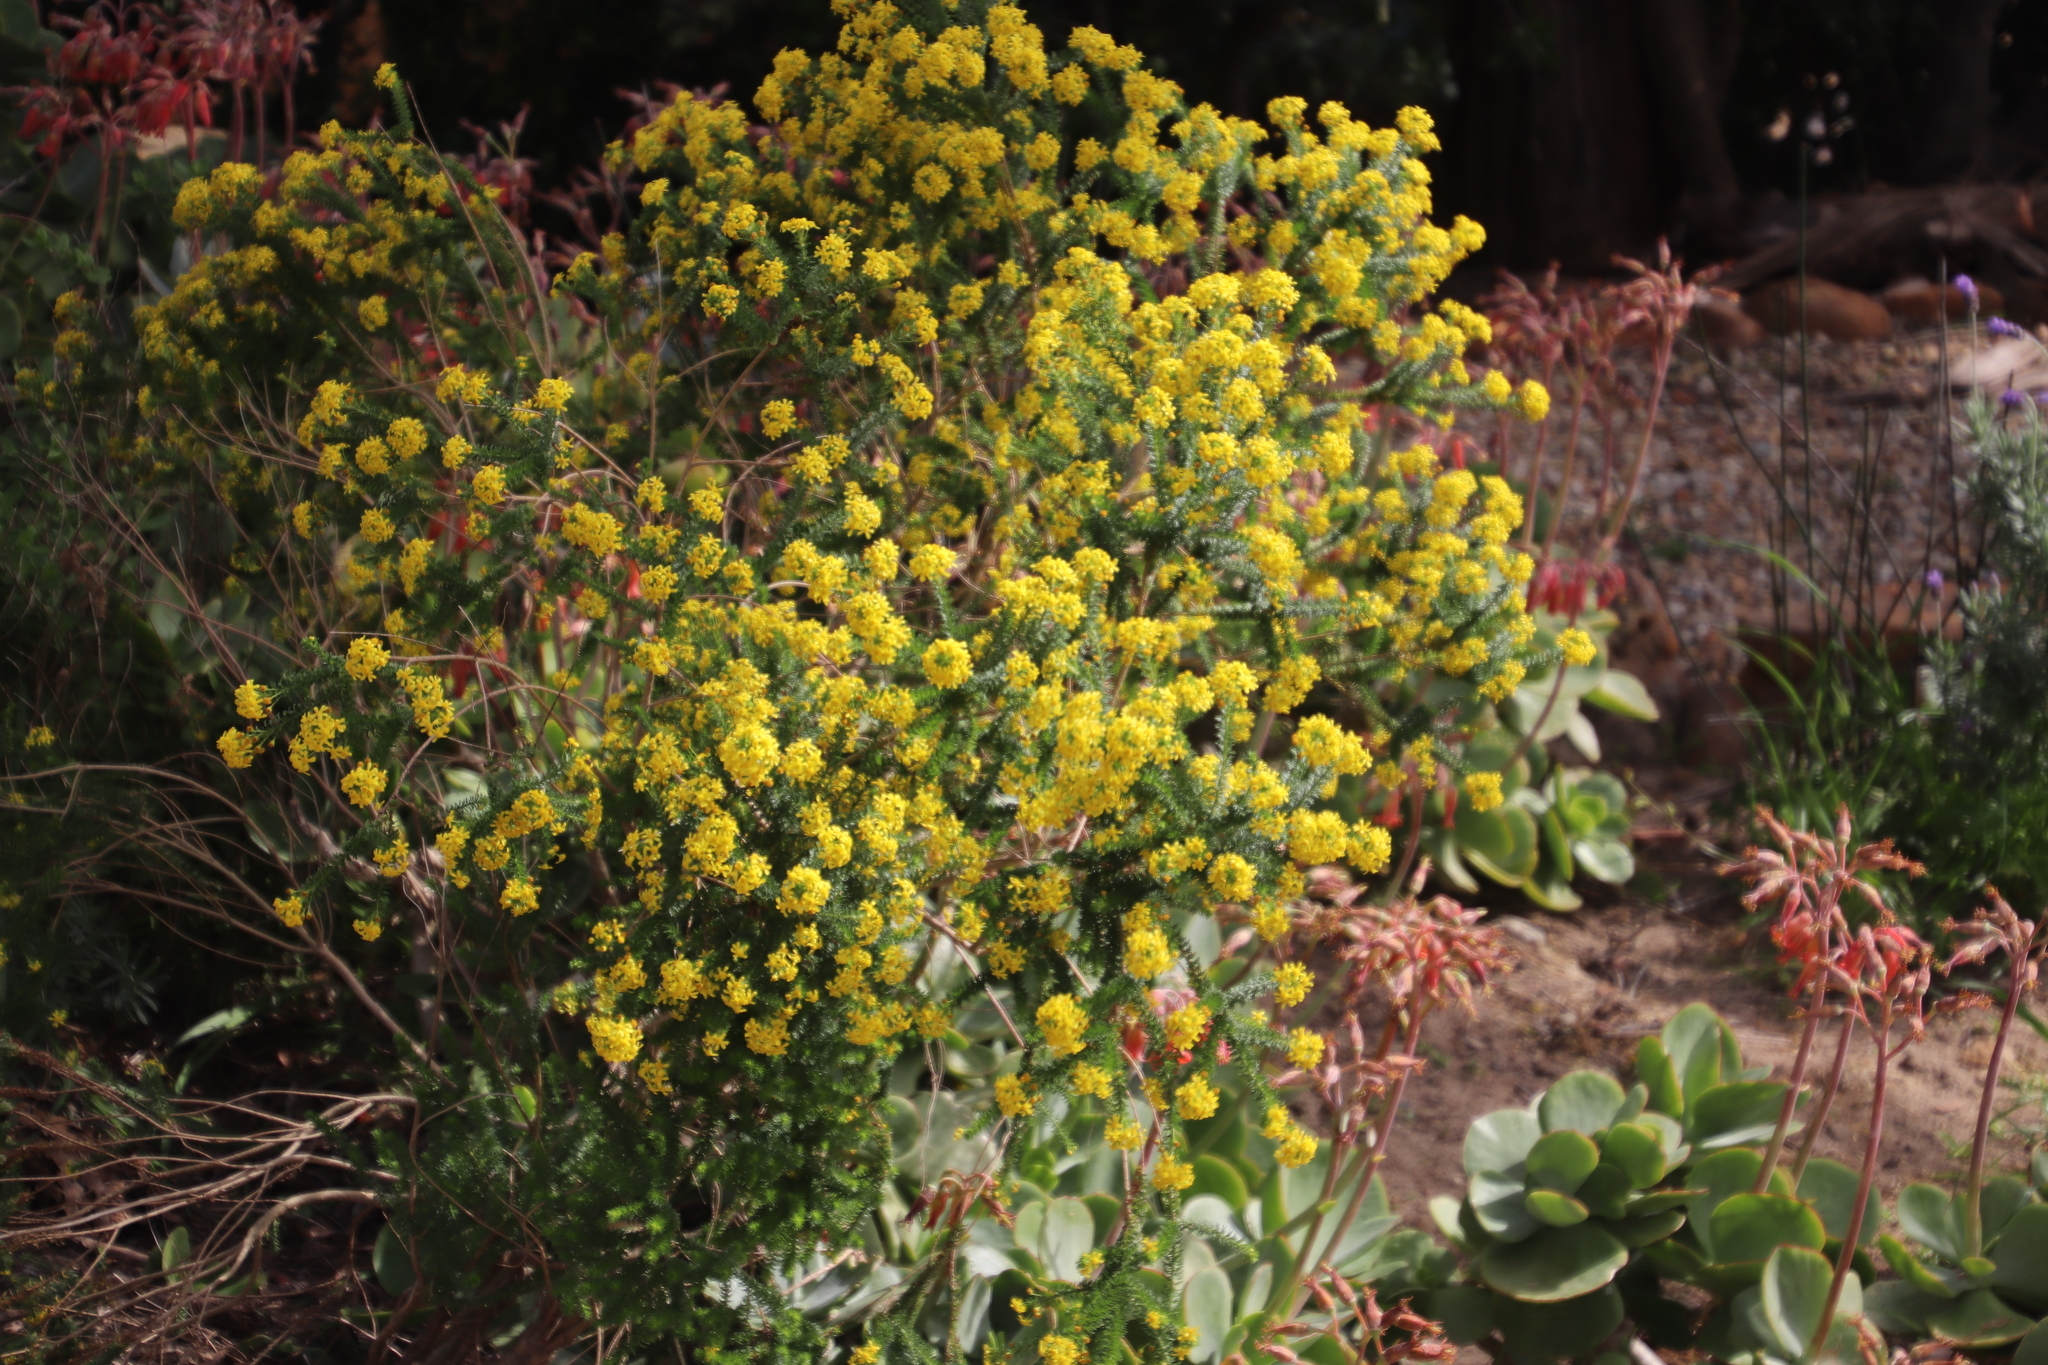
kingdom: Plantae
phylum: Tracheophyta
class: Magnoliopsida
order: Asterales
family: Asteraceae
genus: Euryops
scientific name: Euryops virgineus
